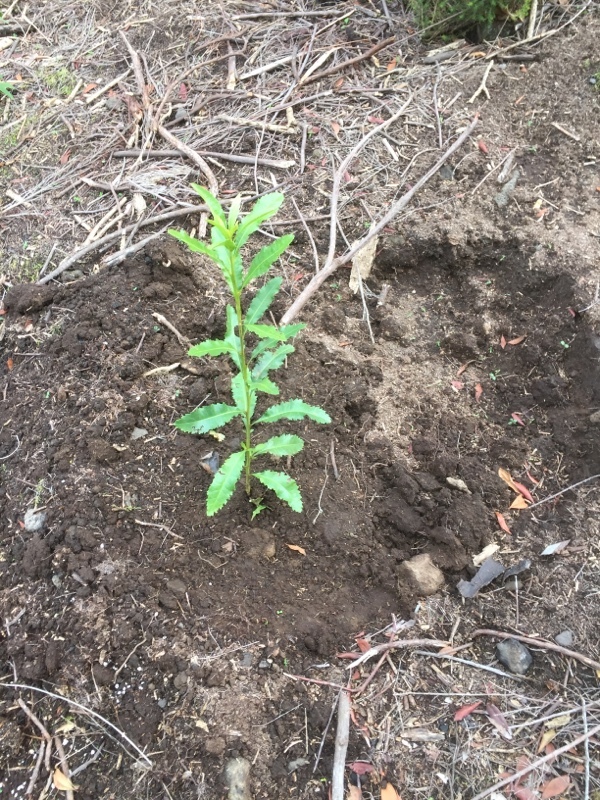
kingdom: Plantae
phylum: Tracheophyta
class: Magnoliopsida
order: Fagales
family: Myricaceae
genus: Morella
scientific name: Morella faya
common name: Firetree
